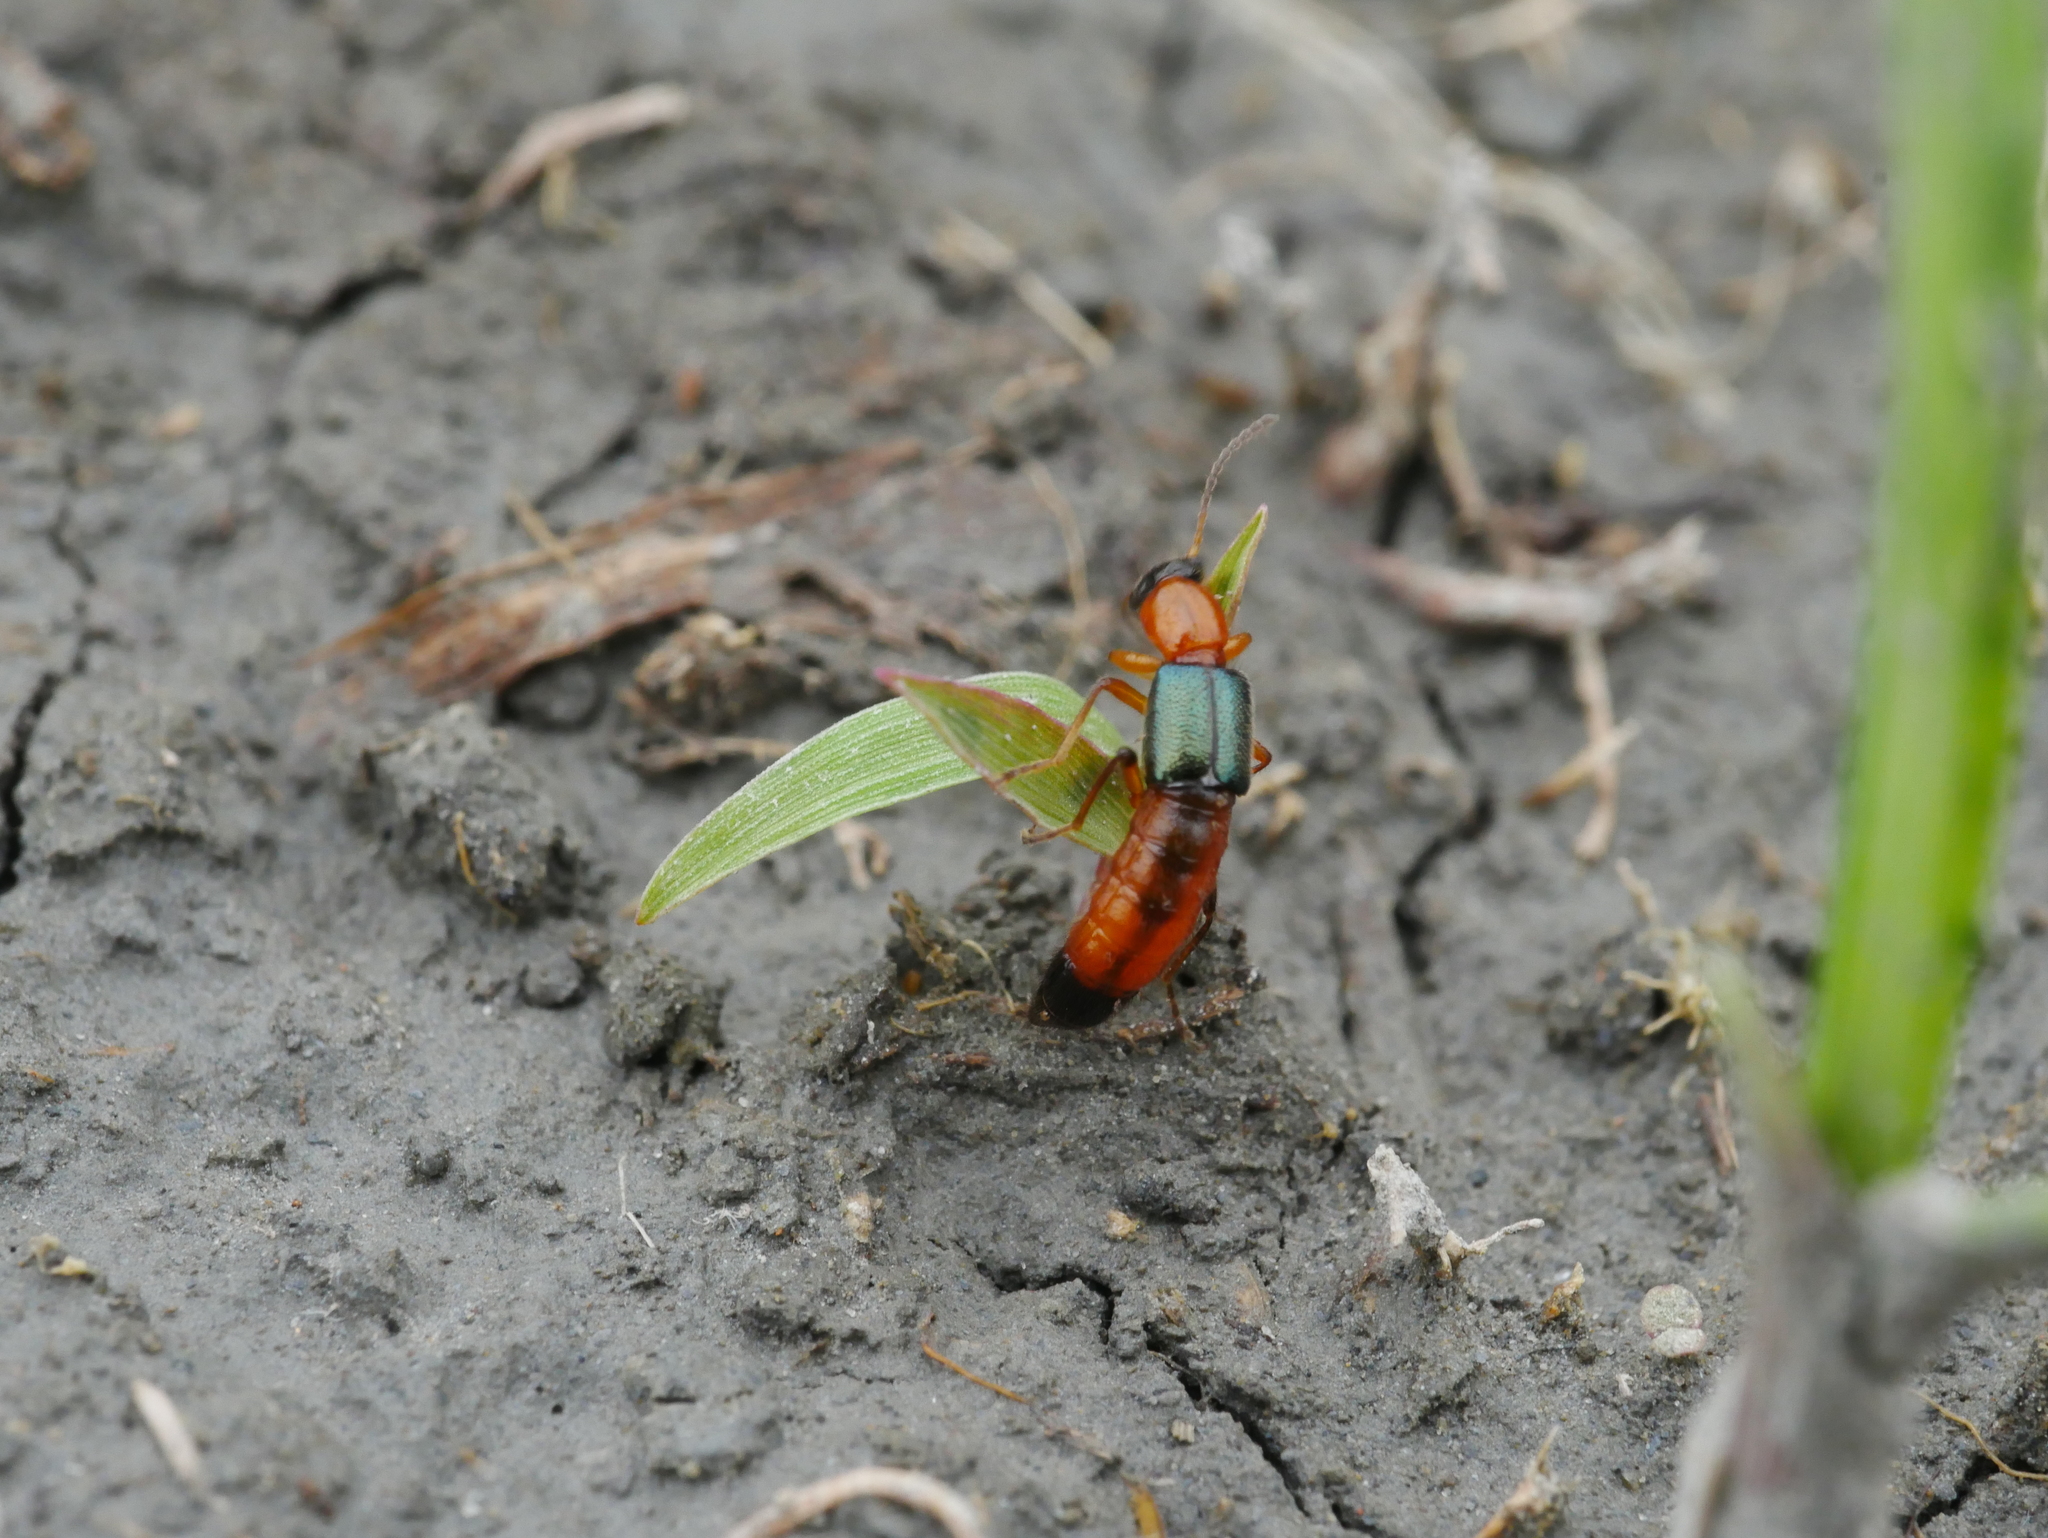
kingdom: Animalia
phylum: Arthropoda
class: Insecta
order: Coleoptera
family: Staphylinidae
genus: Paederus
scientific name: Paederus fuscipes
